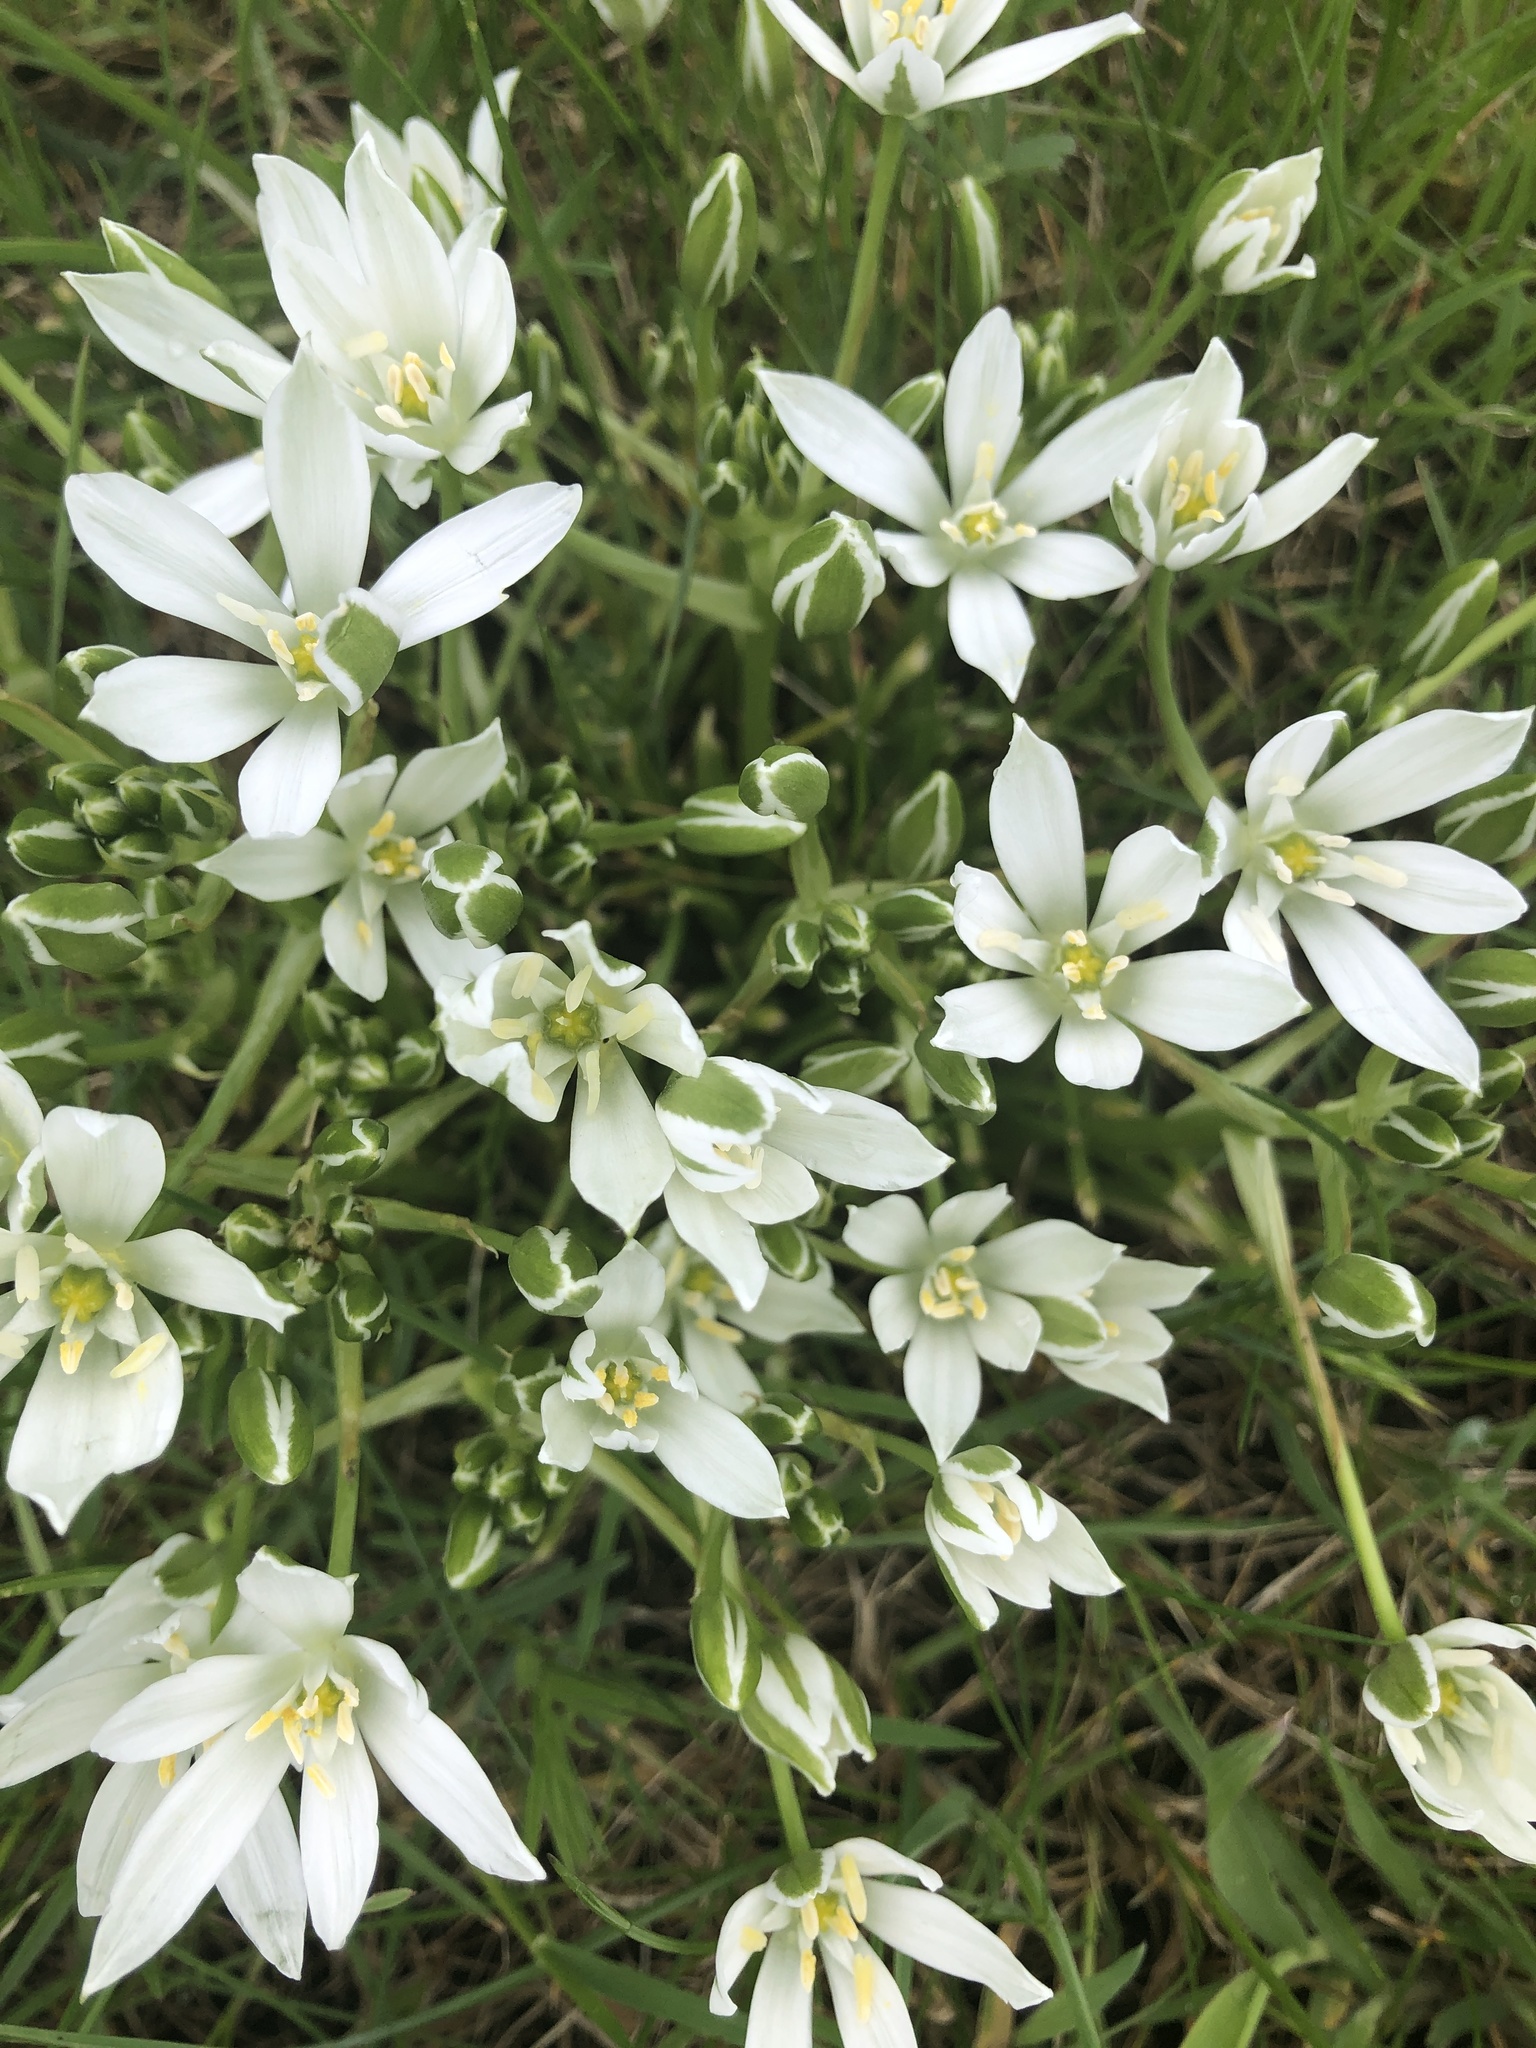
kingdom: Plantae
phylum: Tracheophyta
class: Liliopsida
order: Asparagales
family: Asparagaceae
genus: Ornithogalum
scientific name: Ornithogalum umbellatum
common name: Garden star-of-bethlehem
